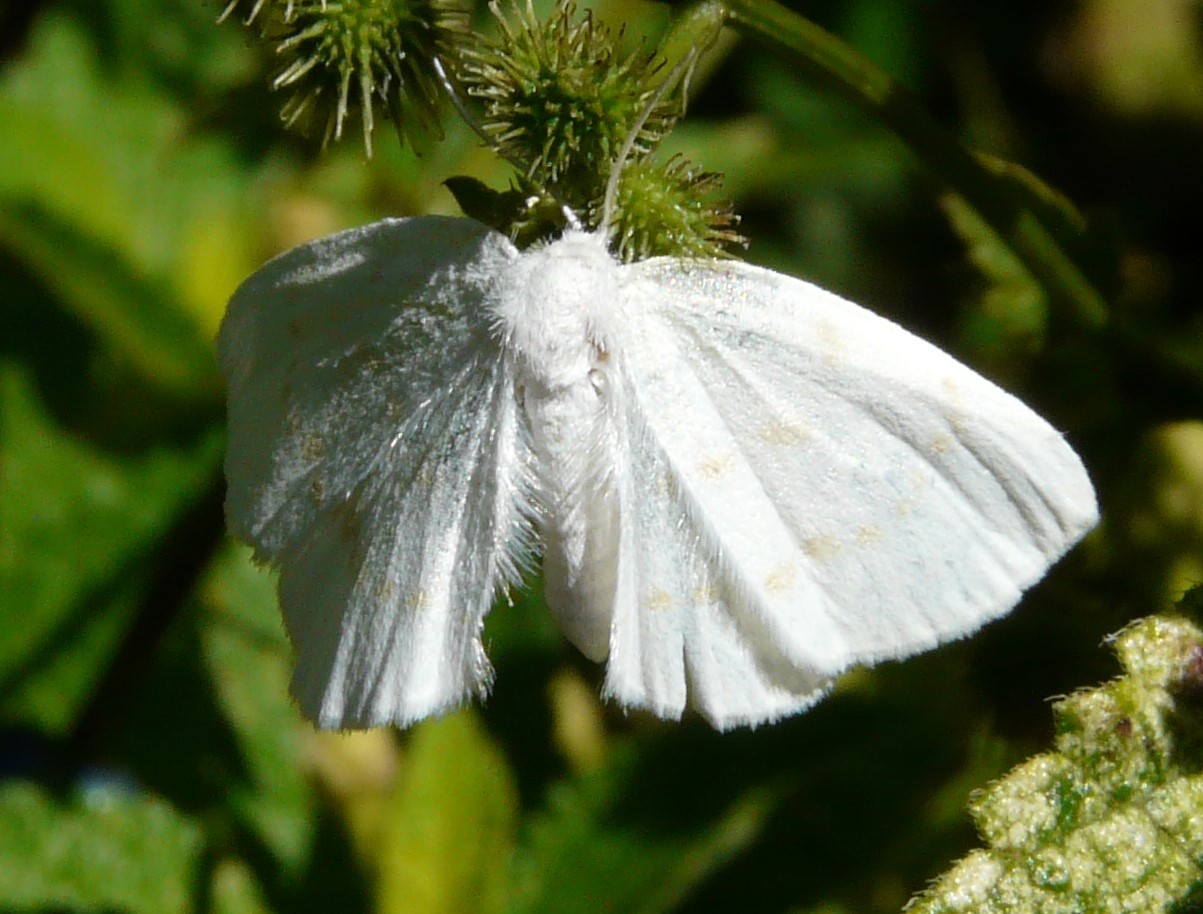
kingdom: Animalia
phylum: Arthropoda
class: Insecta
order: Lepidoptera
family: Drepanidae
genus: Eudeilinia
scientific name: Eudeilinia herminiata
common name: Northern eudeilinea moth
